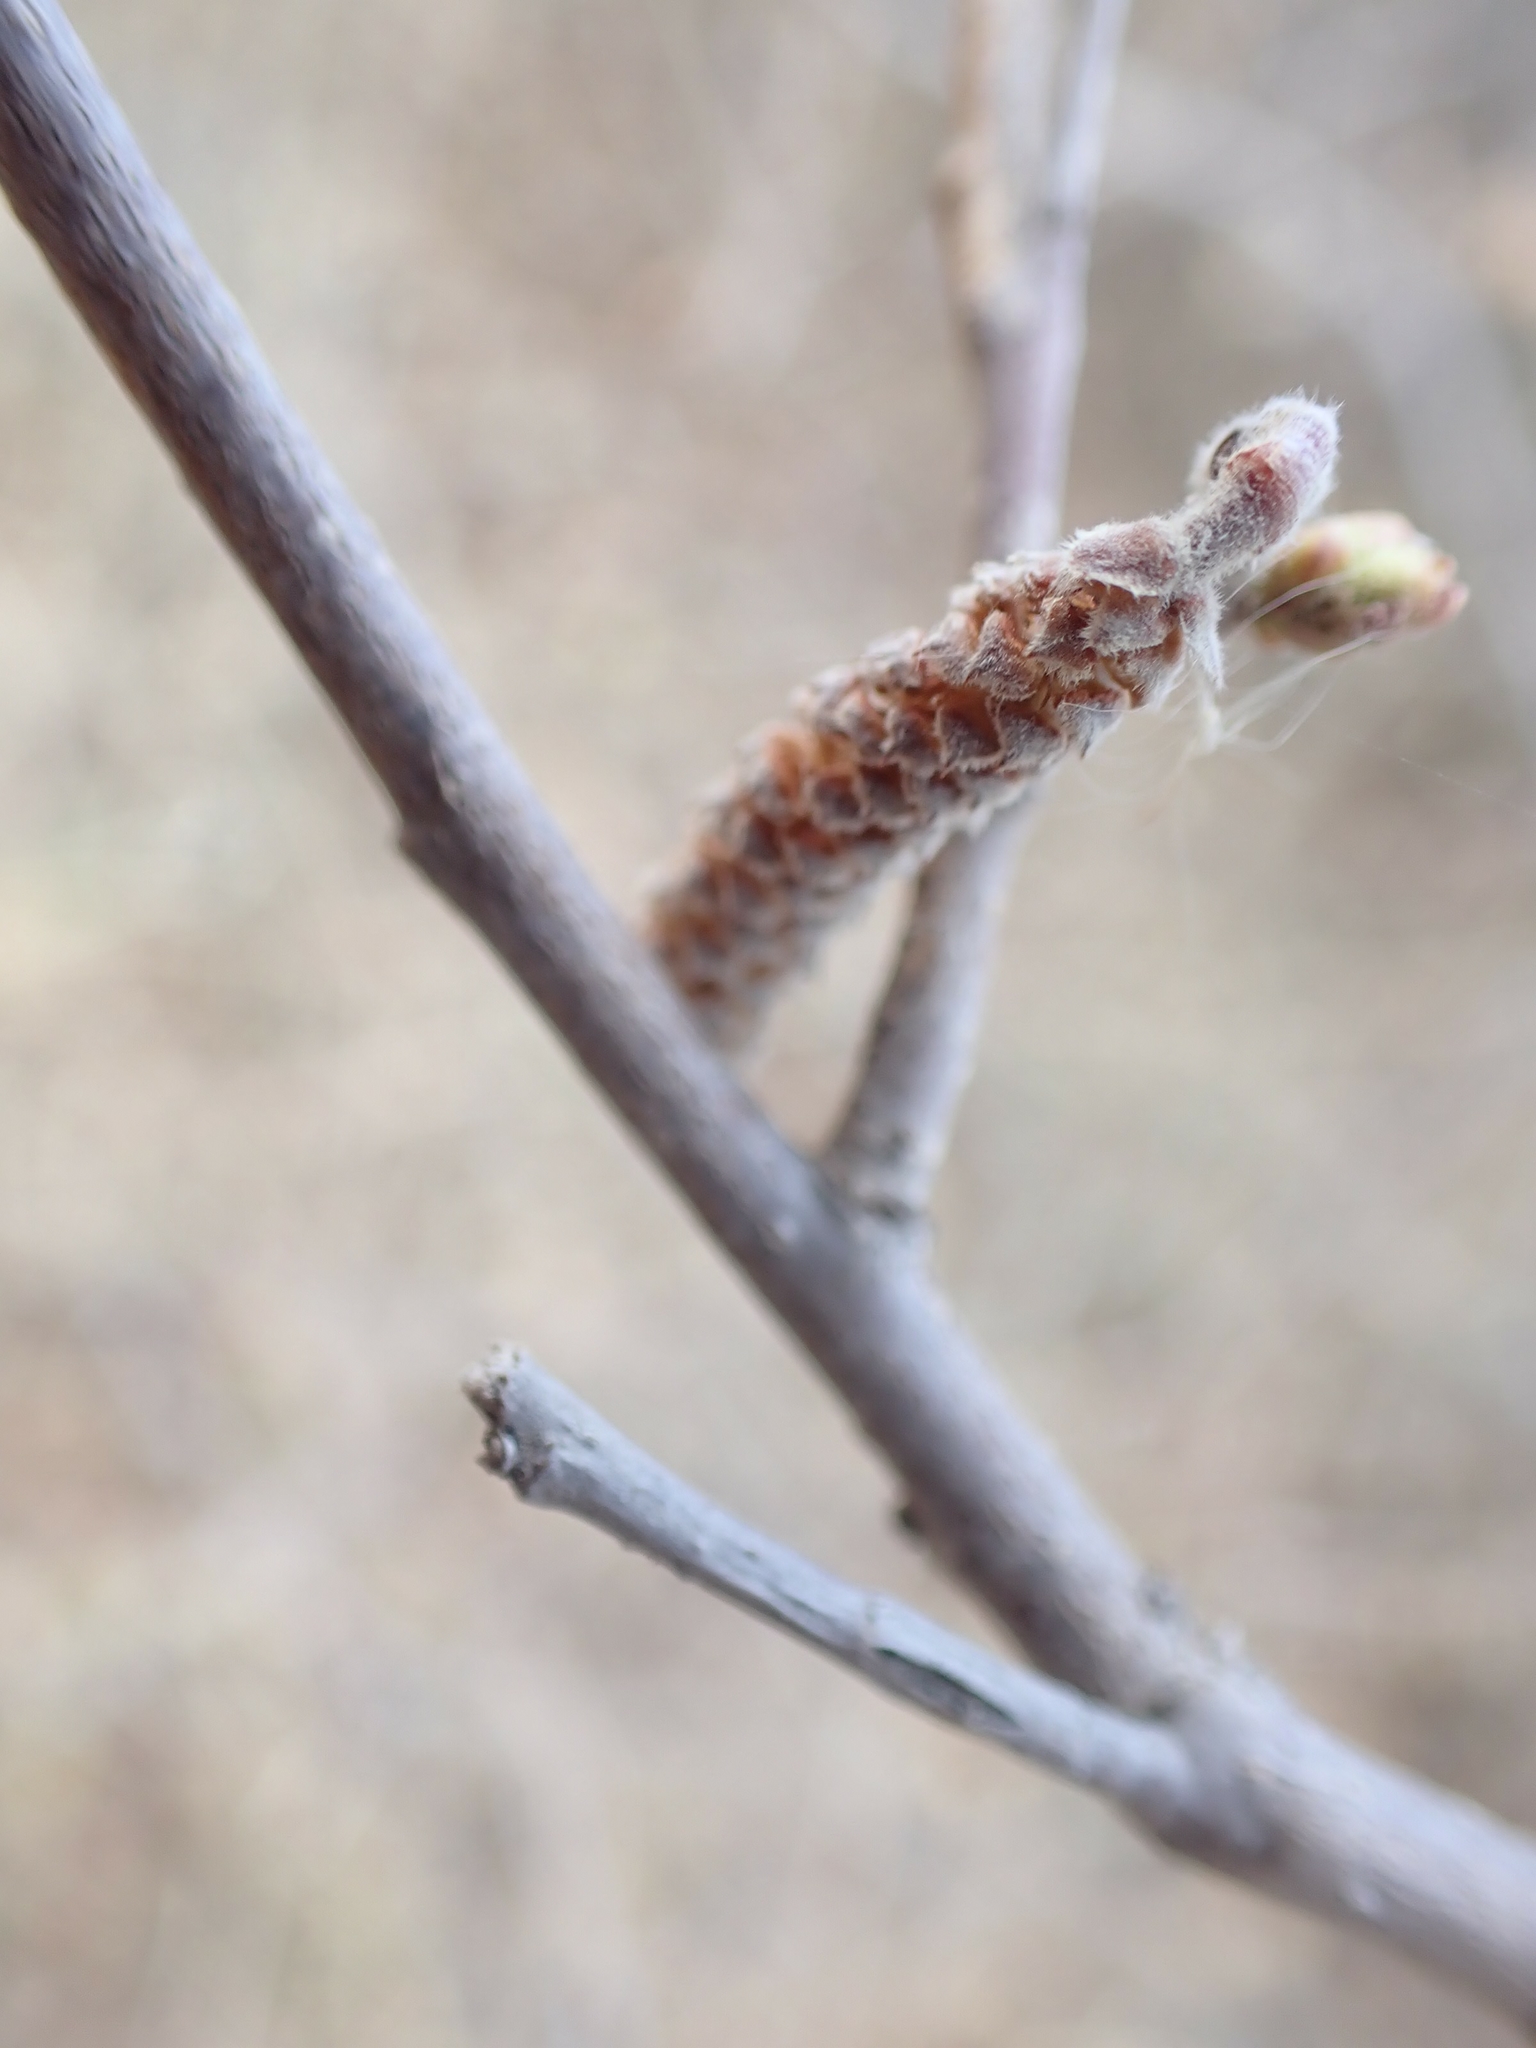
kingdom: Plantae
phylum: Tracheophyta
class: Magnoliopsida
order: Fagales
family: Betulaceae
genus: Corylus
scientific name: Corylus cornuta
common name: Beaked hazel
